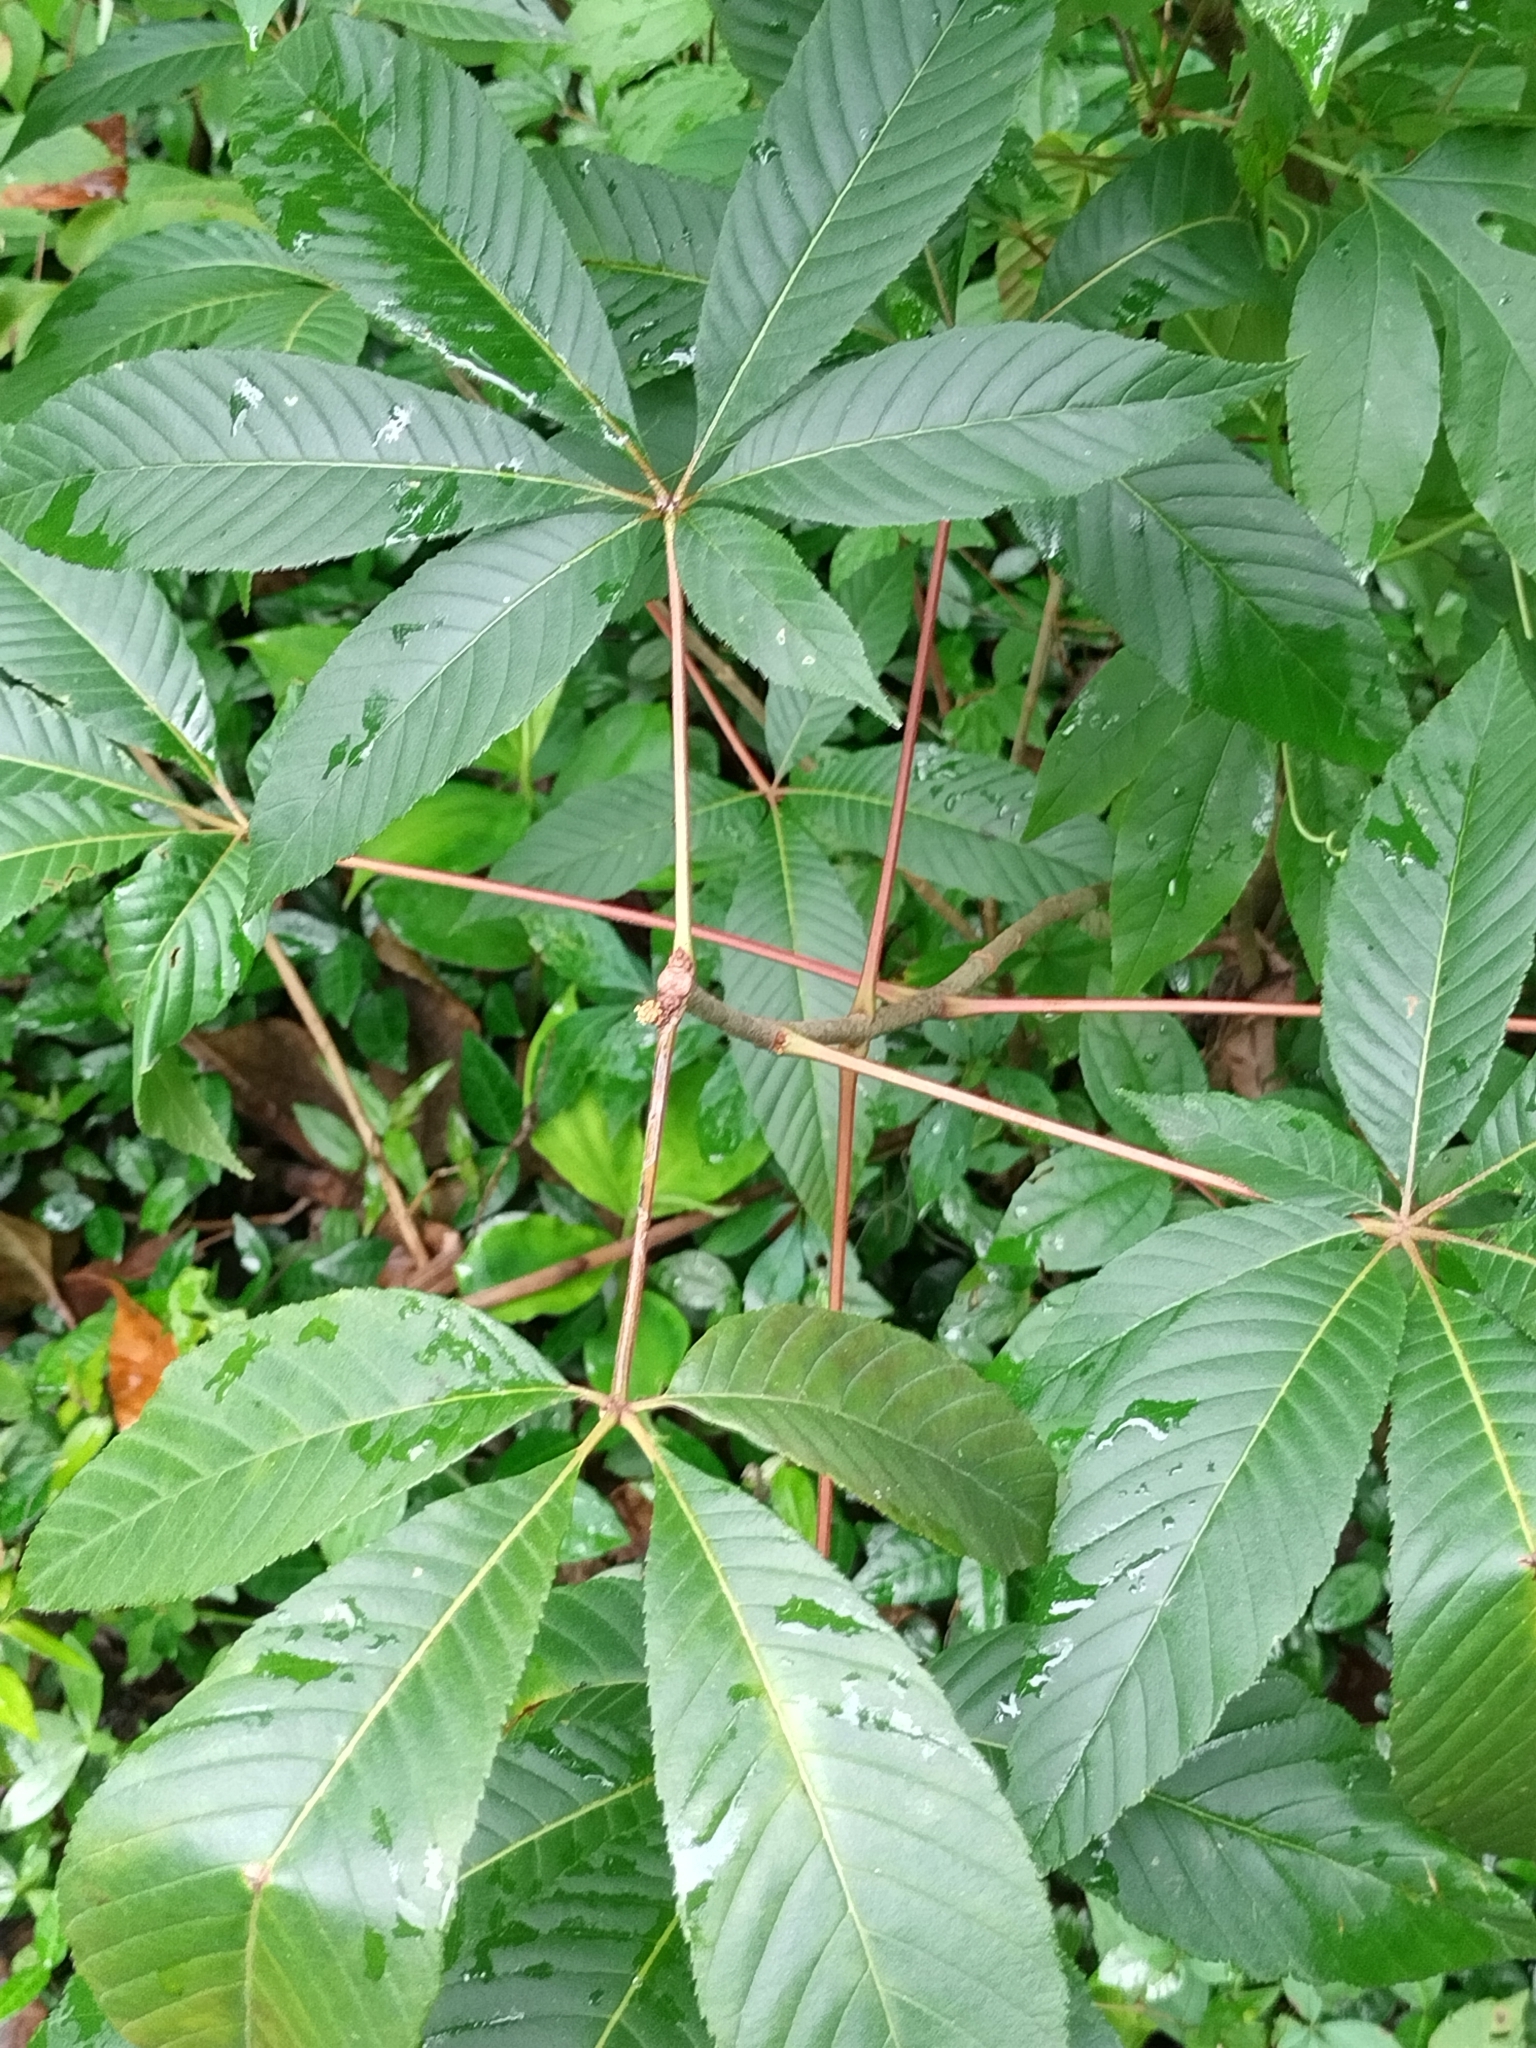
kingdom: Plantae
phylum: Tracheophyta
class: Magnoliopsida
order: Sapindales
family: Sapindaceae
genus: Aesculus
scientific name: Aesculus pavia
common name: Red buckeye
